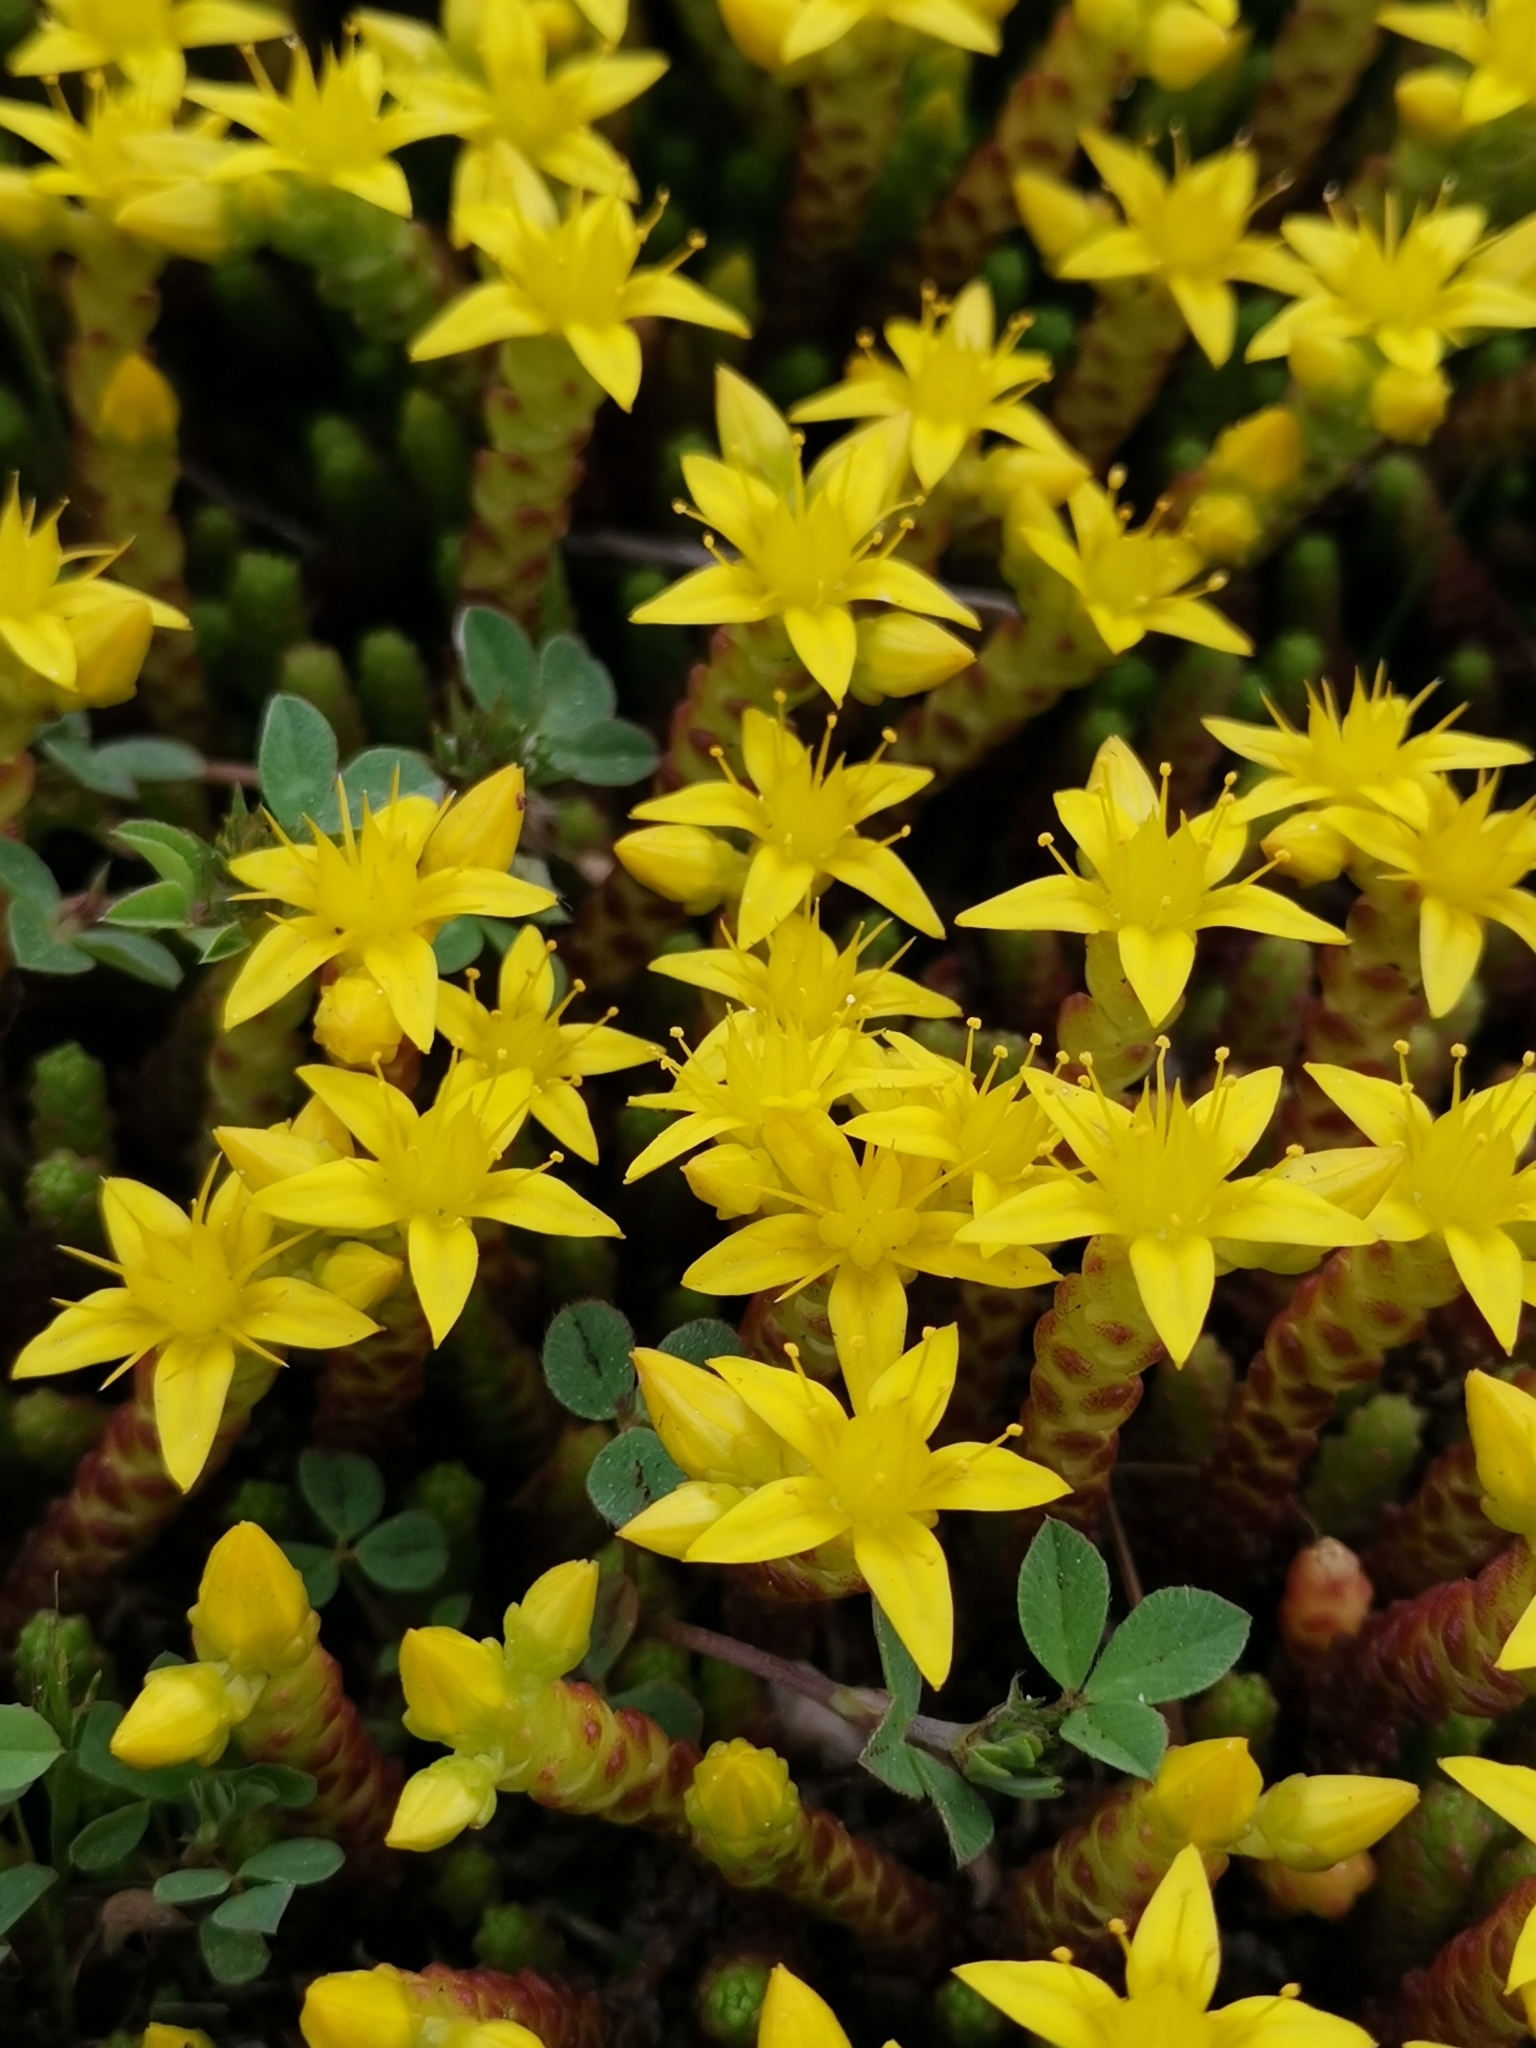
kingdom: Plantae
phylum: Tracheophyta
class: Magnoliopsida
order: Saxifragales
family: Crassulaceae
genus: Sedum
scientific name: Sedum acre
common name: Biting stonecrop
